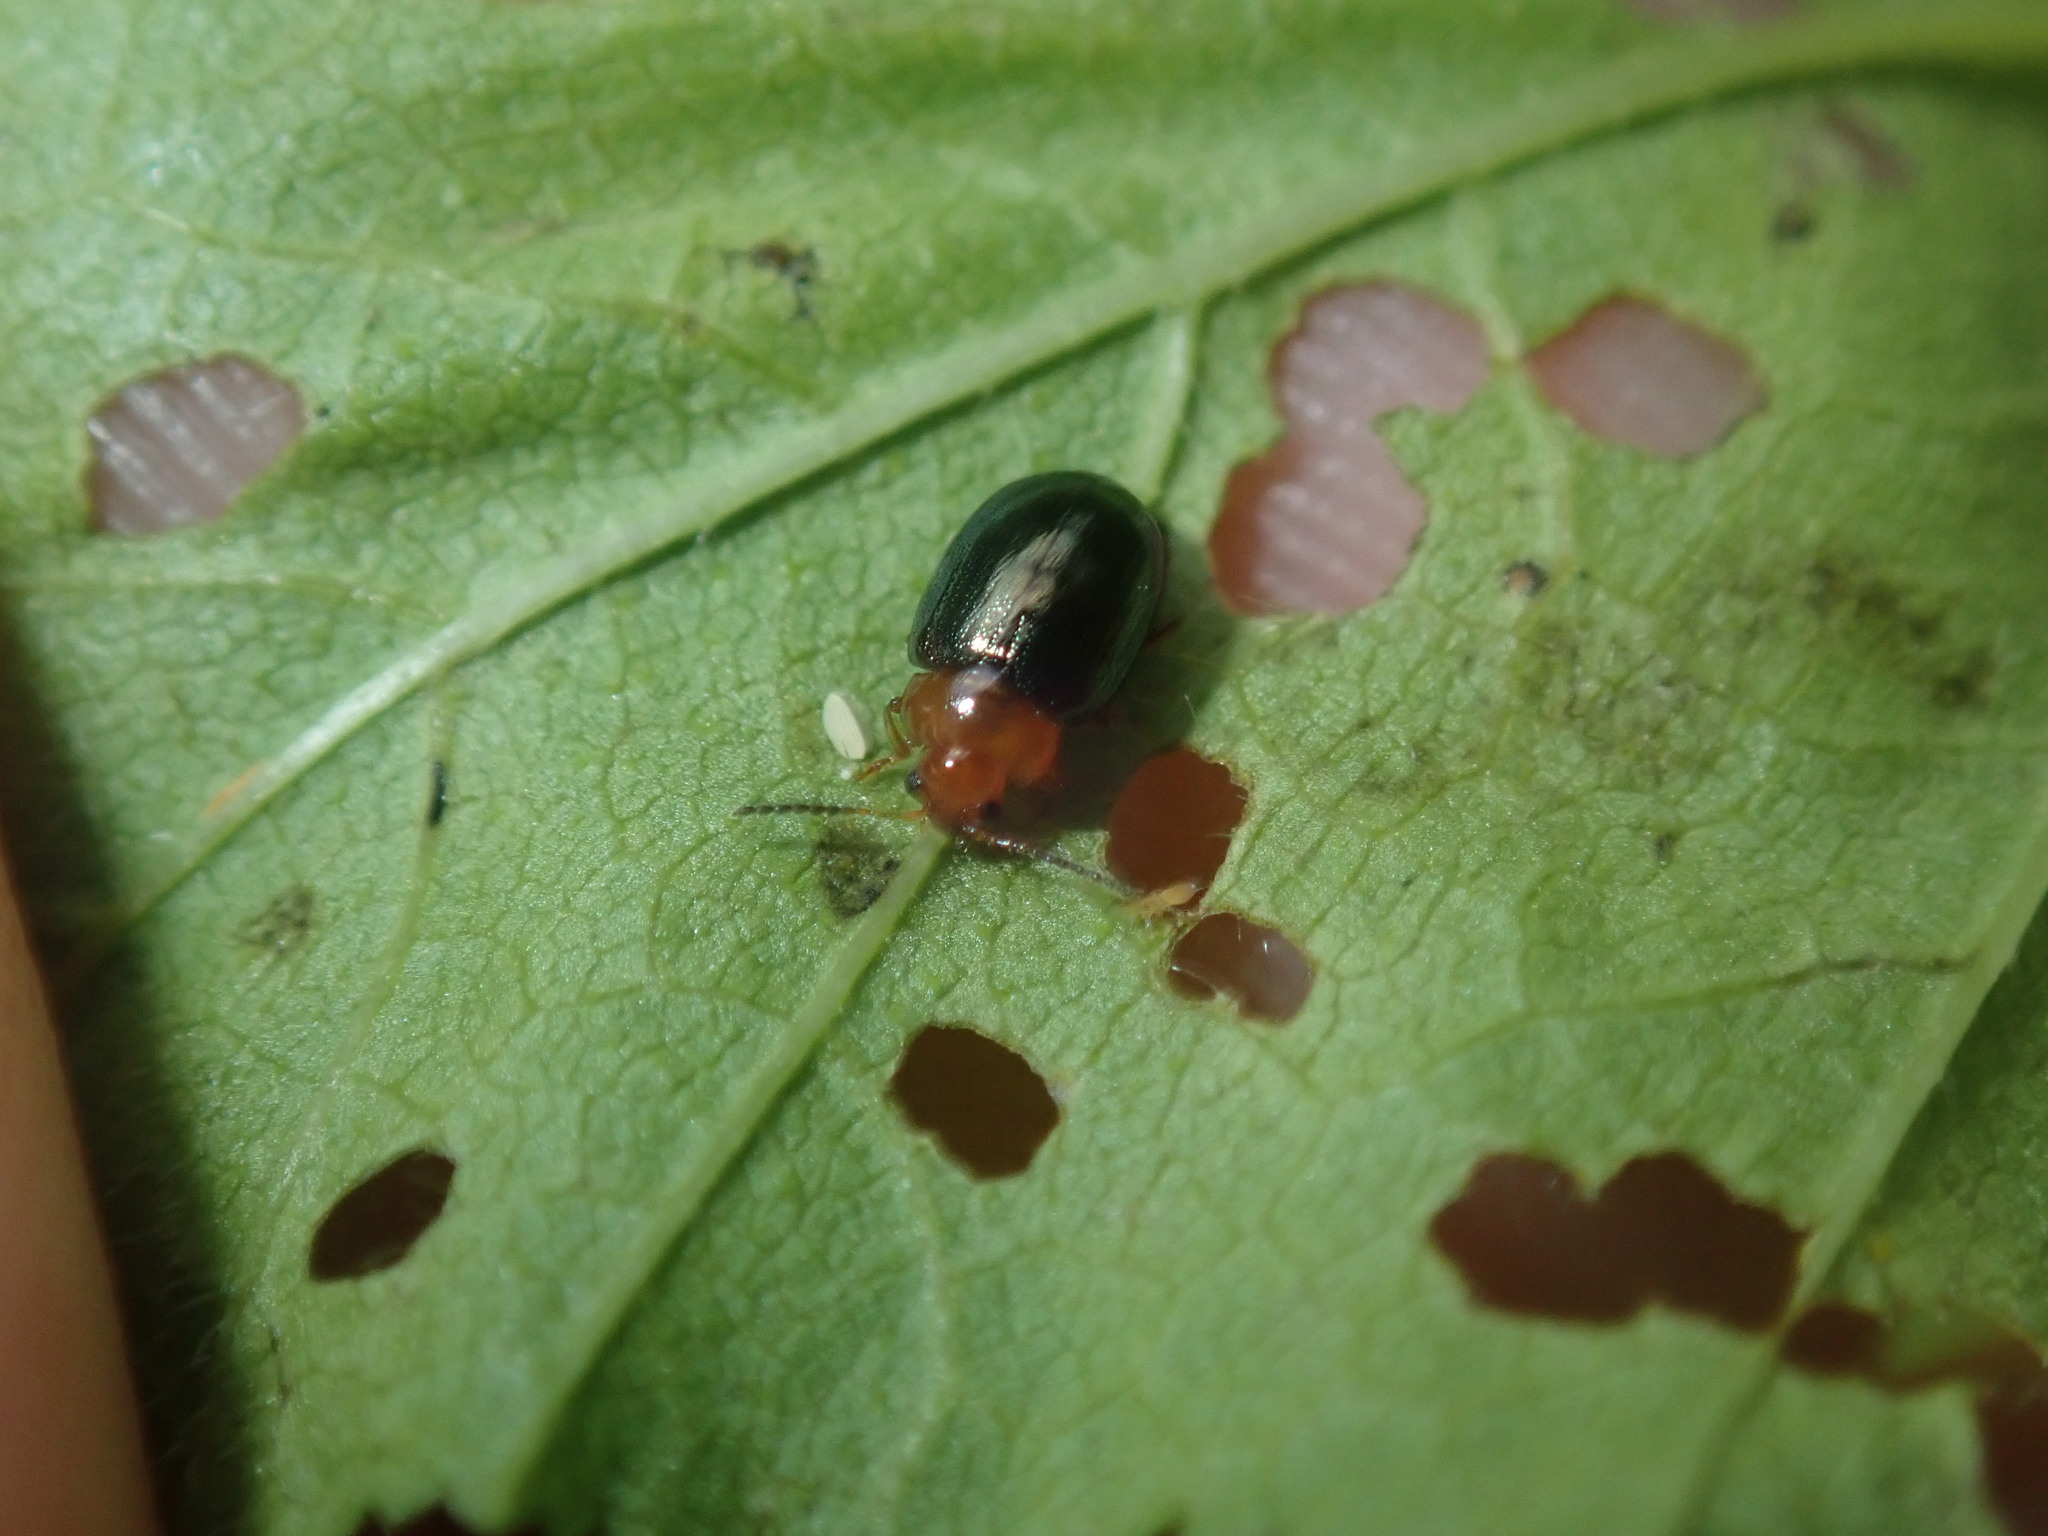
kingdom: Animalia
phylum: Arthropoda
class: Insecta
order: Coleoptera
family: Chrysomelidae
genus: Nisotra
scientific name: Nisotra
